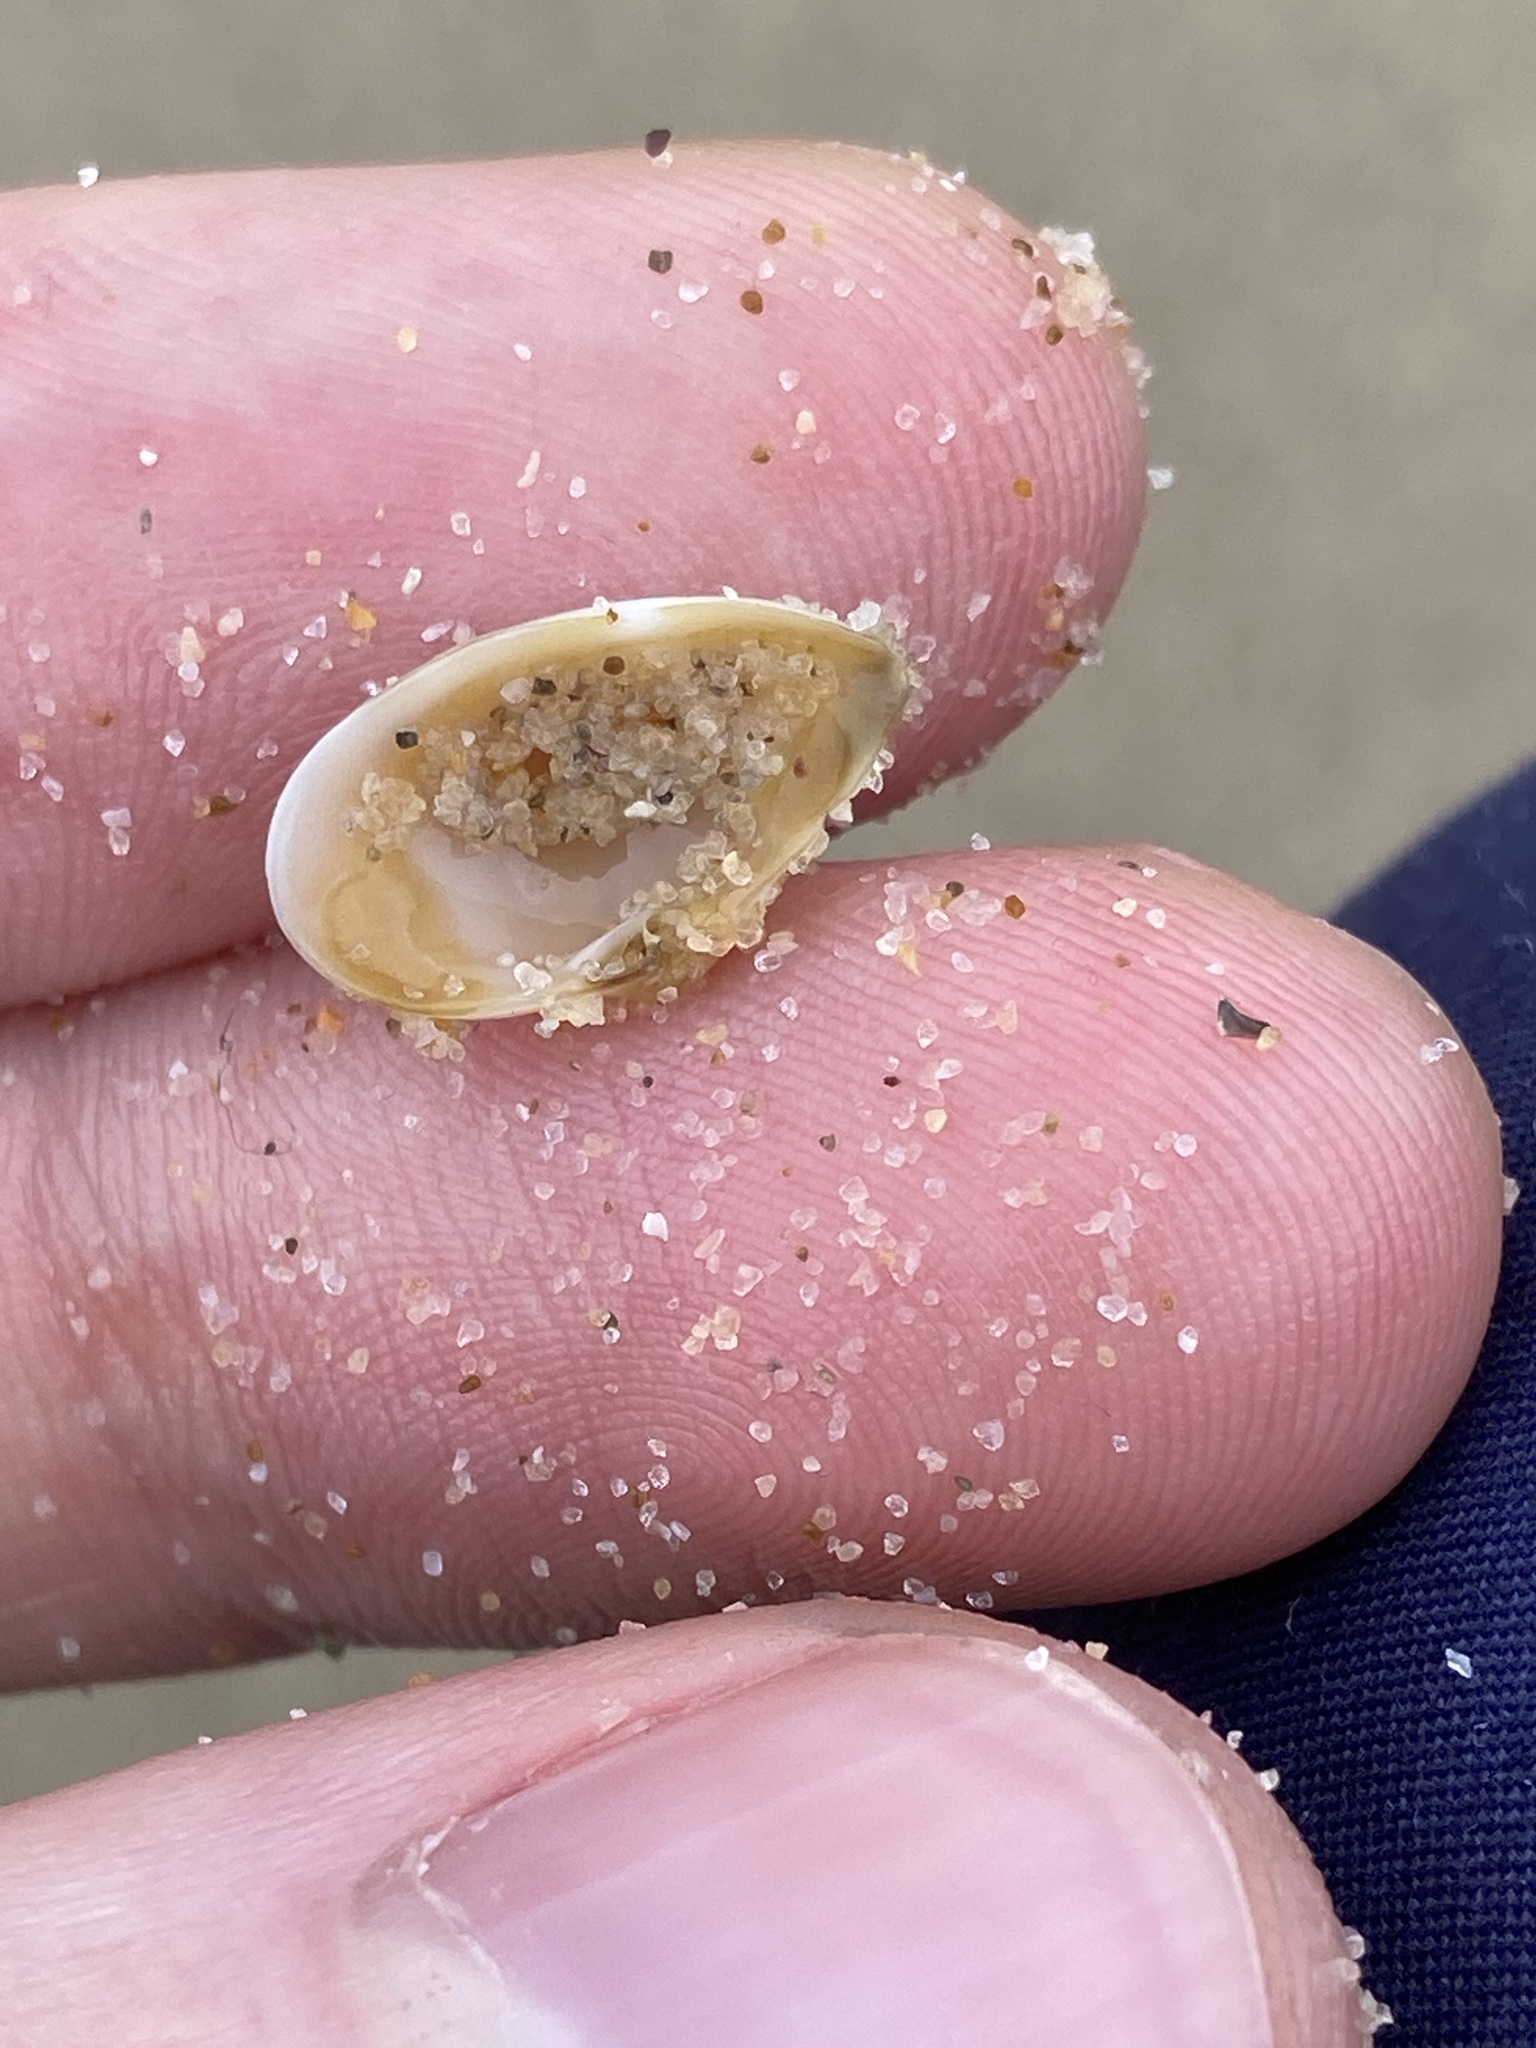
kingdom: Animalia
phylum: Mollusca
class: Bivalvia
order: Myida
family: Corbulidae
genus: Corbula
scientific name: Corbula smithiana
